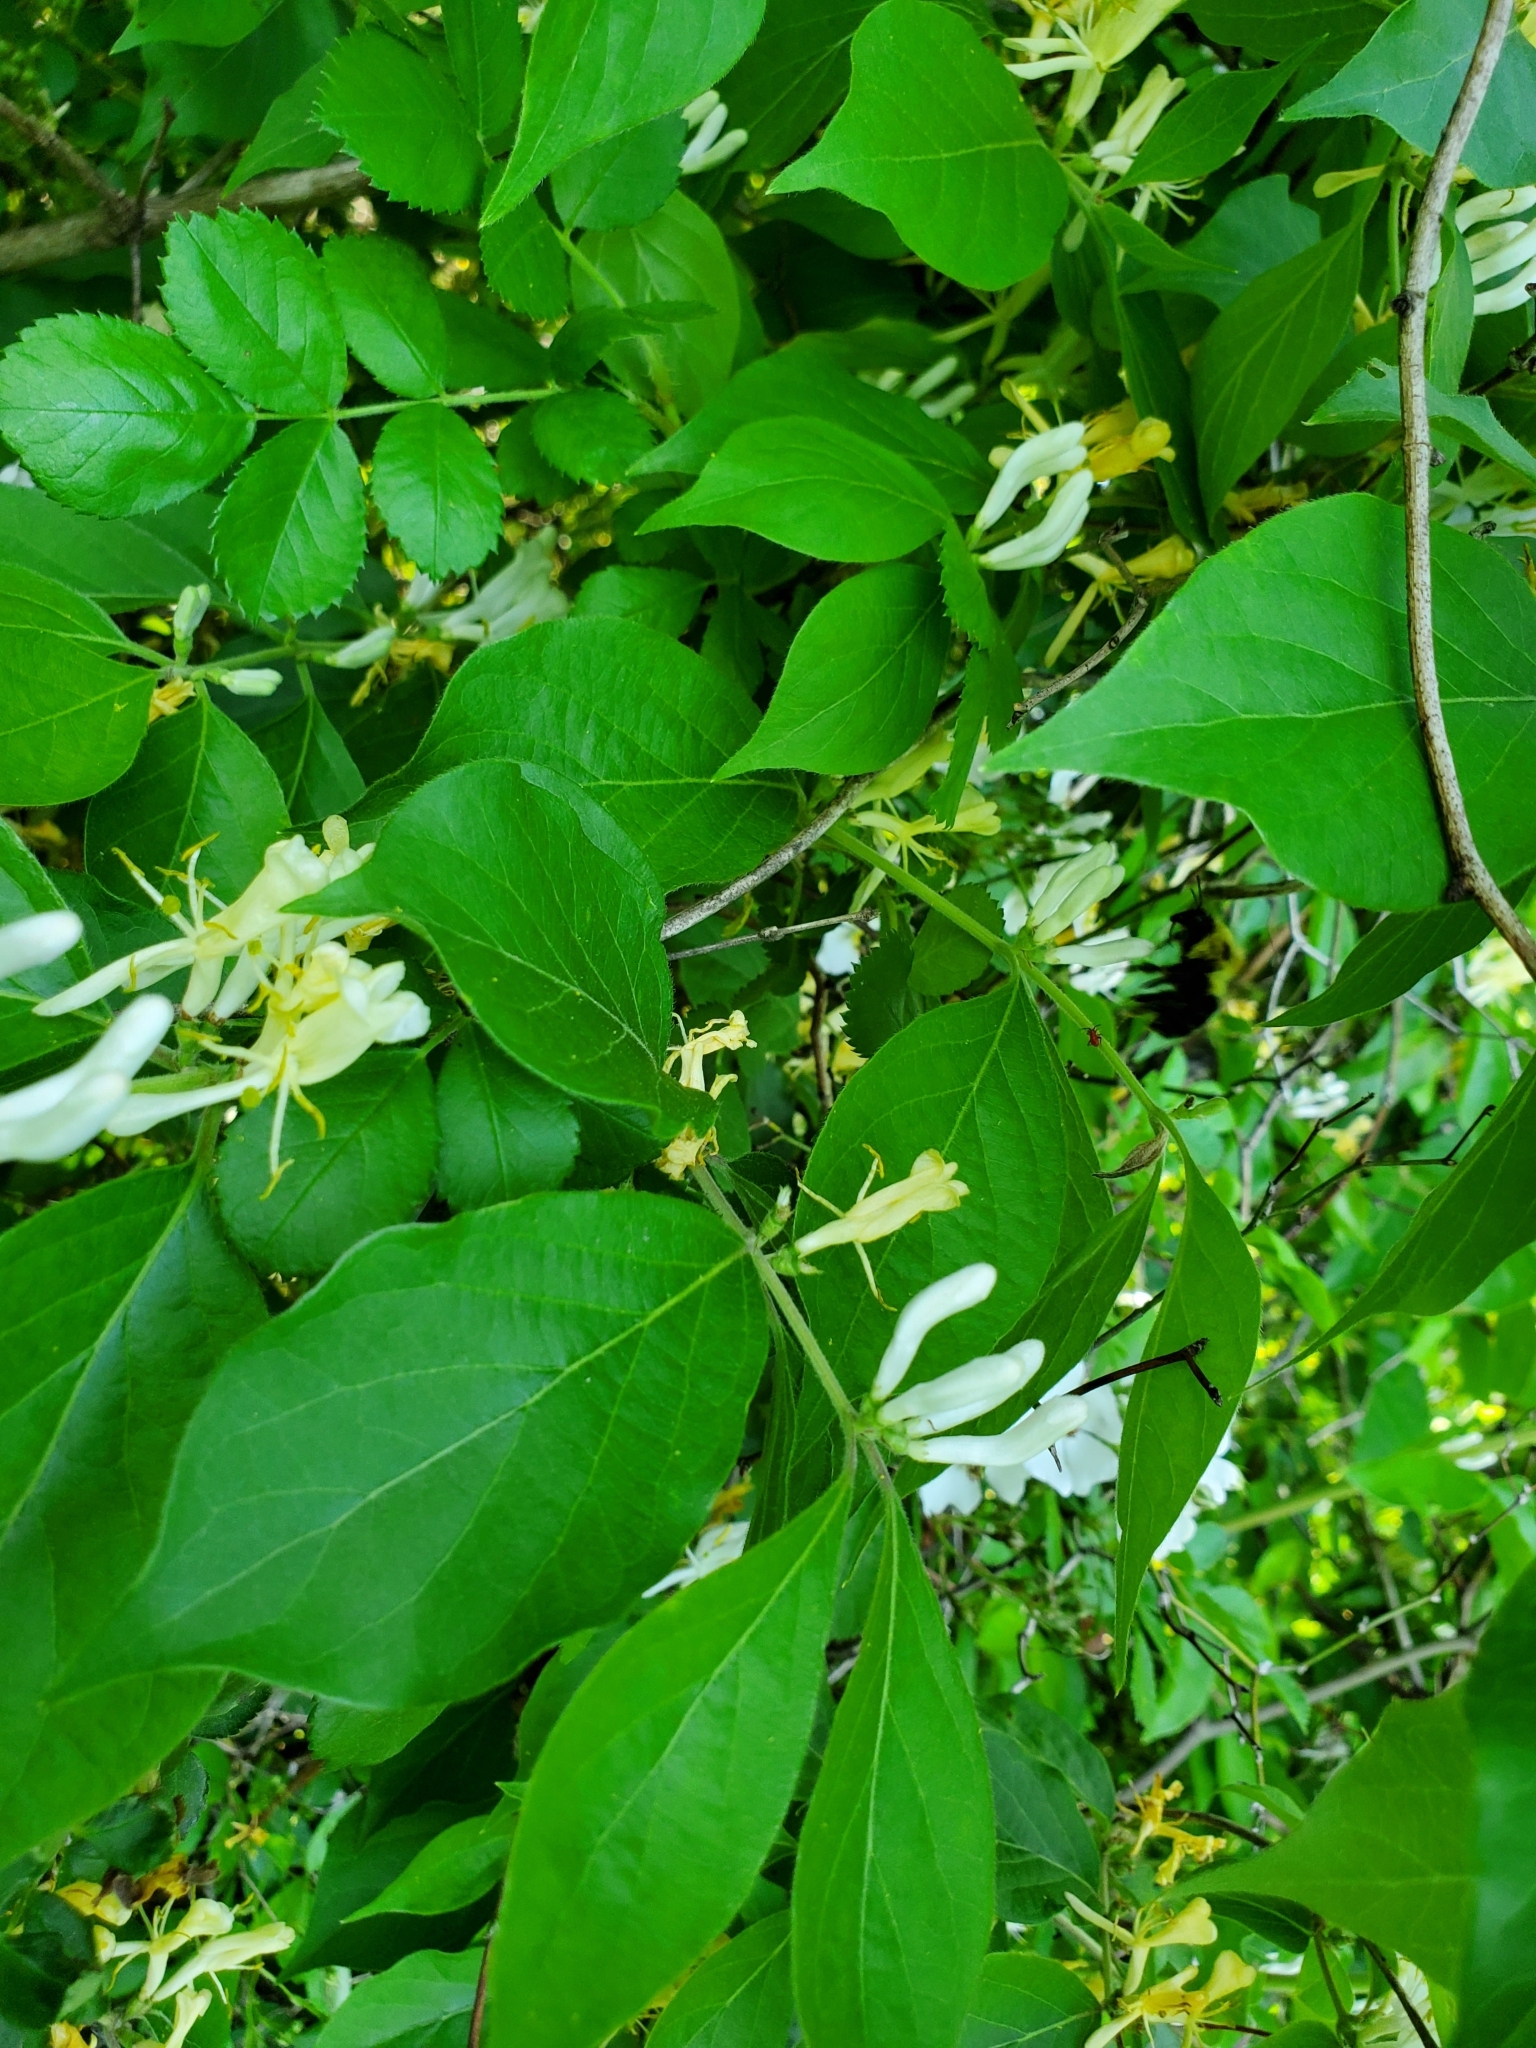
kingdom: Plantae
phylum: Tracheophyta
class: Magnoliopsida
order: Dipsacales
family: Caprifoliaceae
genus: Lonicera
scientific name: Lonicera maackii
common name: Amur honeysuckle
